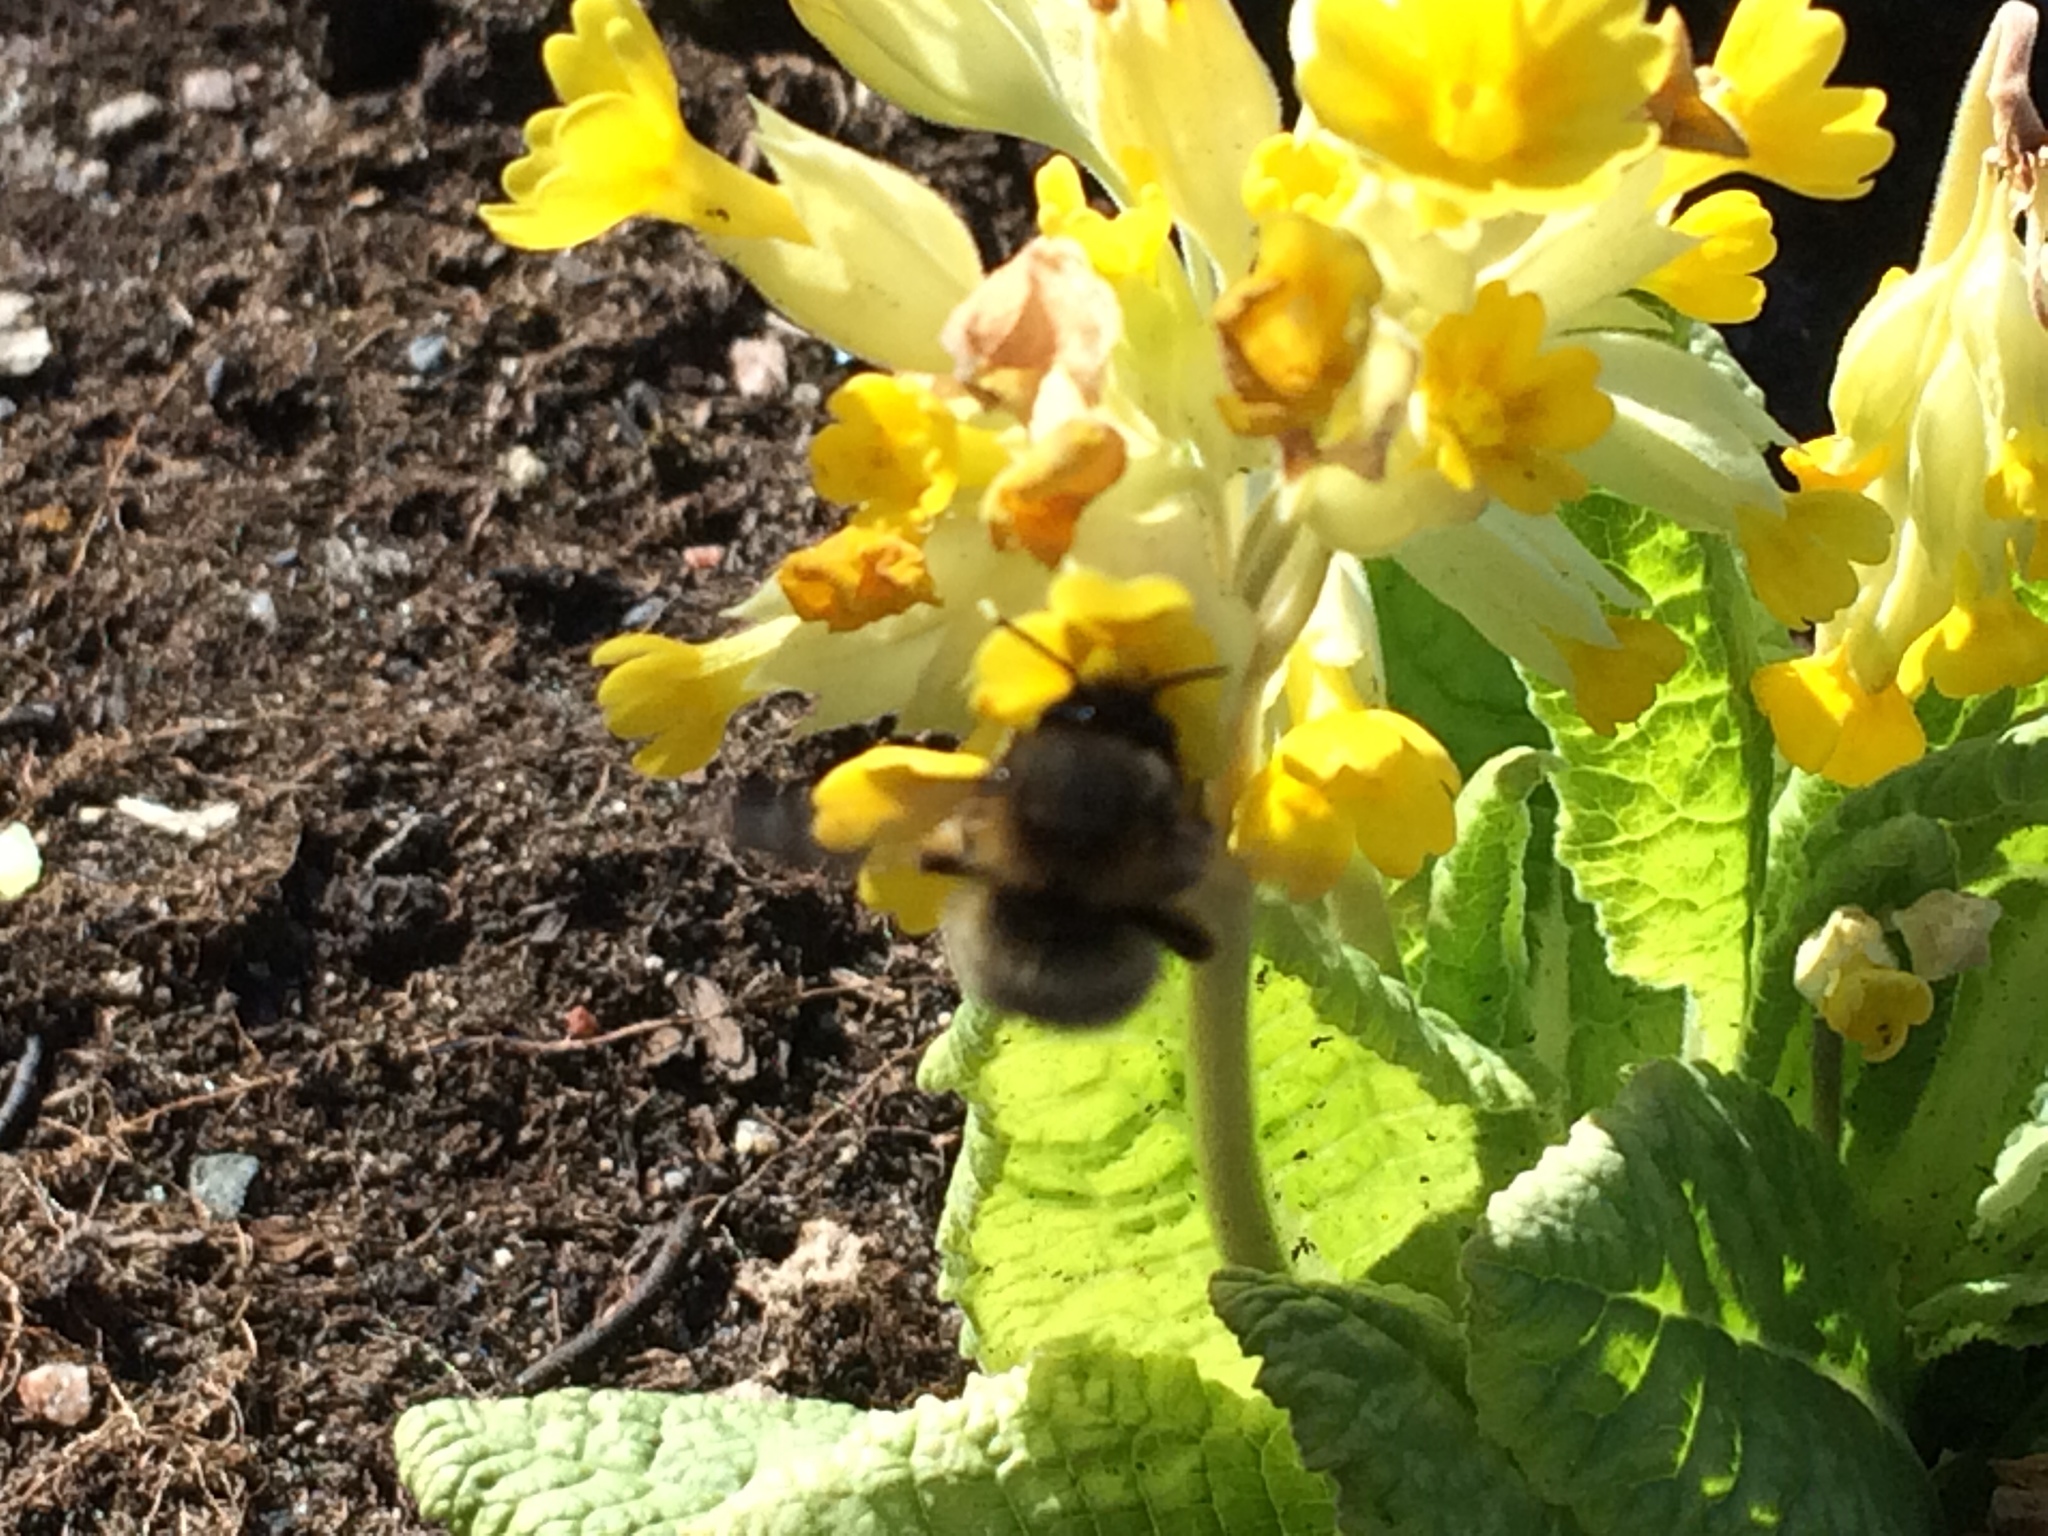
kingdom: Animalia
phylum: Arthropoda
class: Insecta
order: Hymenoptera
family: Apidae
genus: Anthophora
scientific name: Anthophora plumipes
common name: Hairy-footed flower bee
